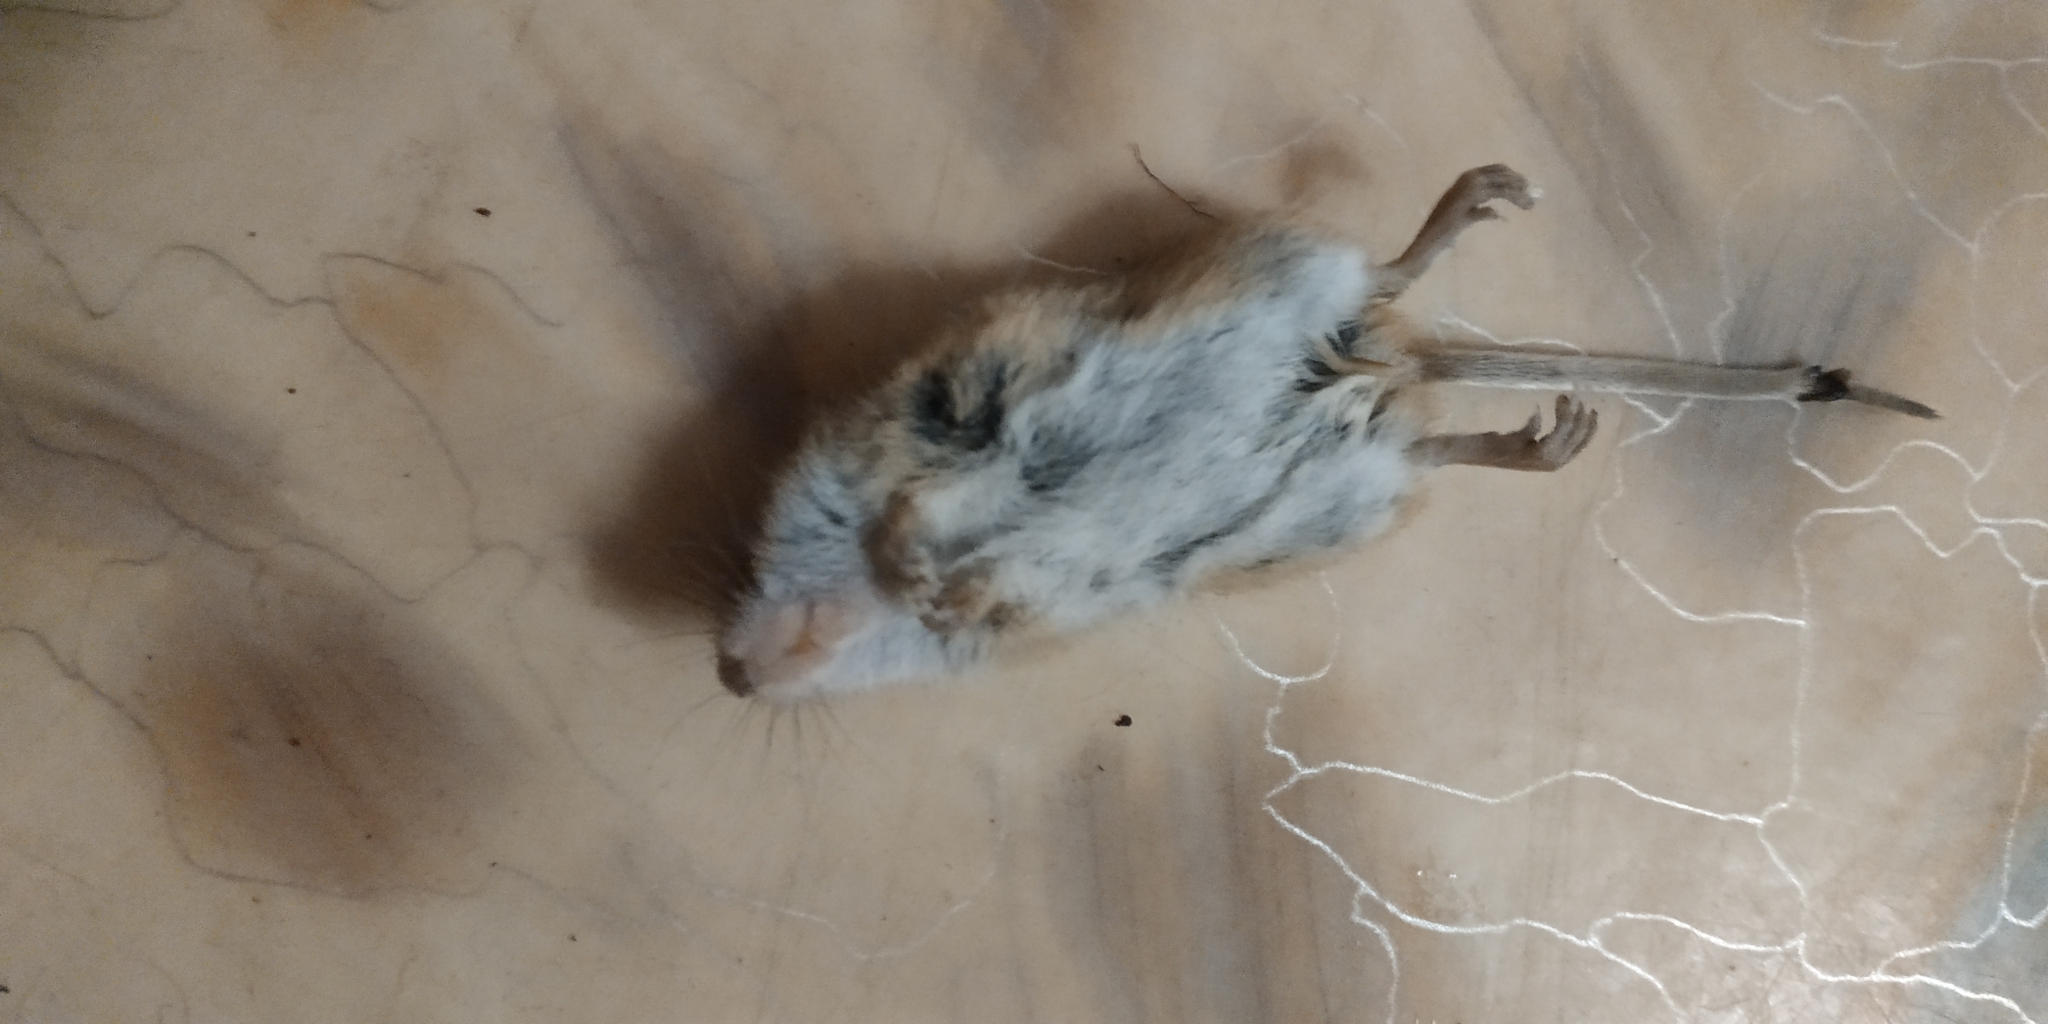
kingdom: Animalia
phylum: Chordata
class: Mammalia
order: Rodentia
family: Muridae
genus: Mus
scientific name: Mus musculus
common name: House mouse
